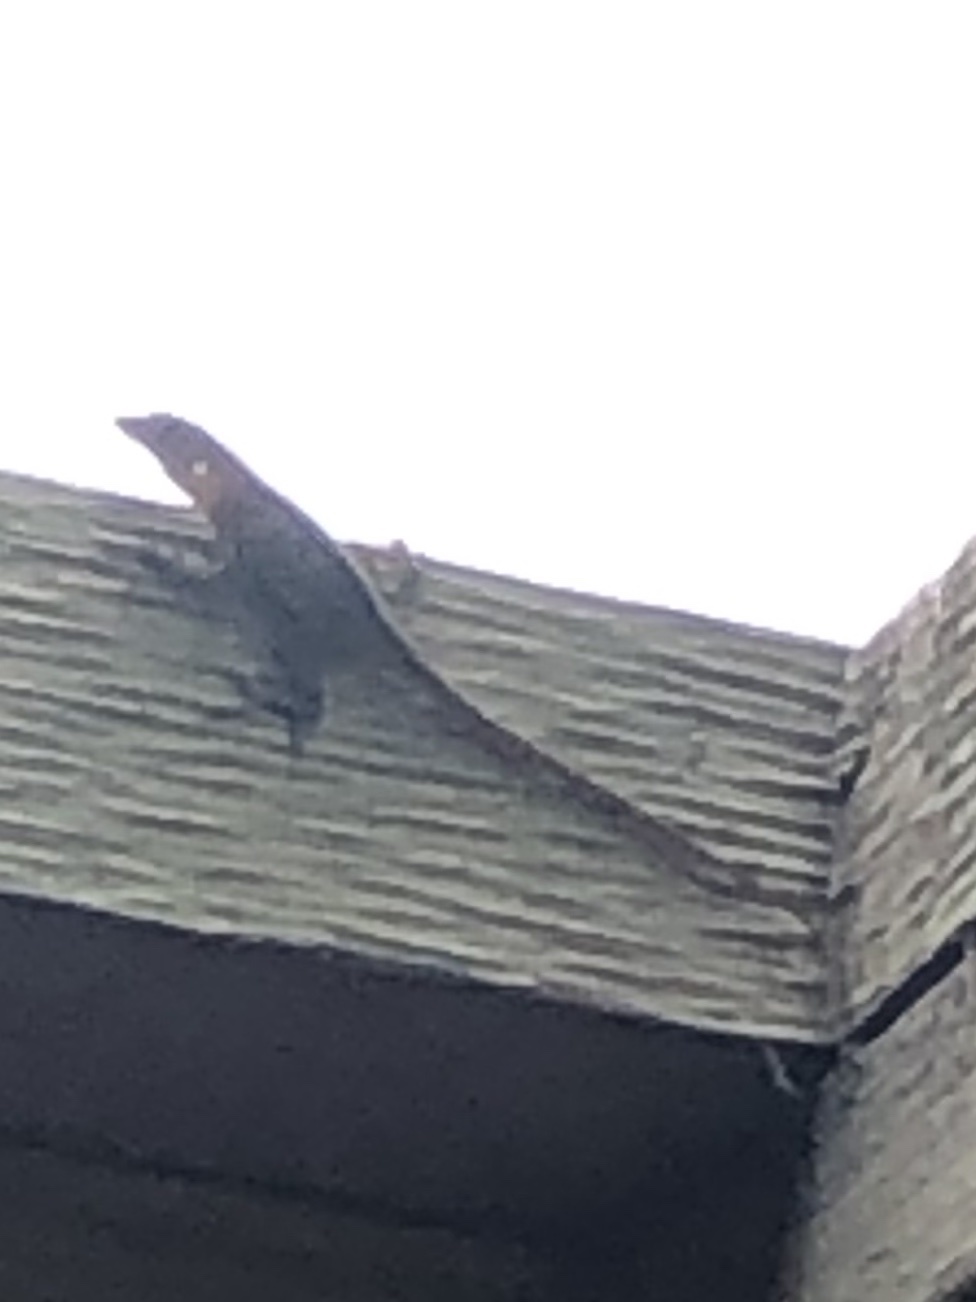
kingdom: Animalia
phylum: Chordata
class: Squamata
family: Dactyloidae
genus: Anolis
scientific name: Anolis sagrei
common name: Brown anole
